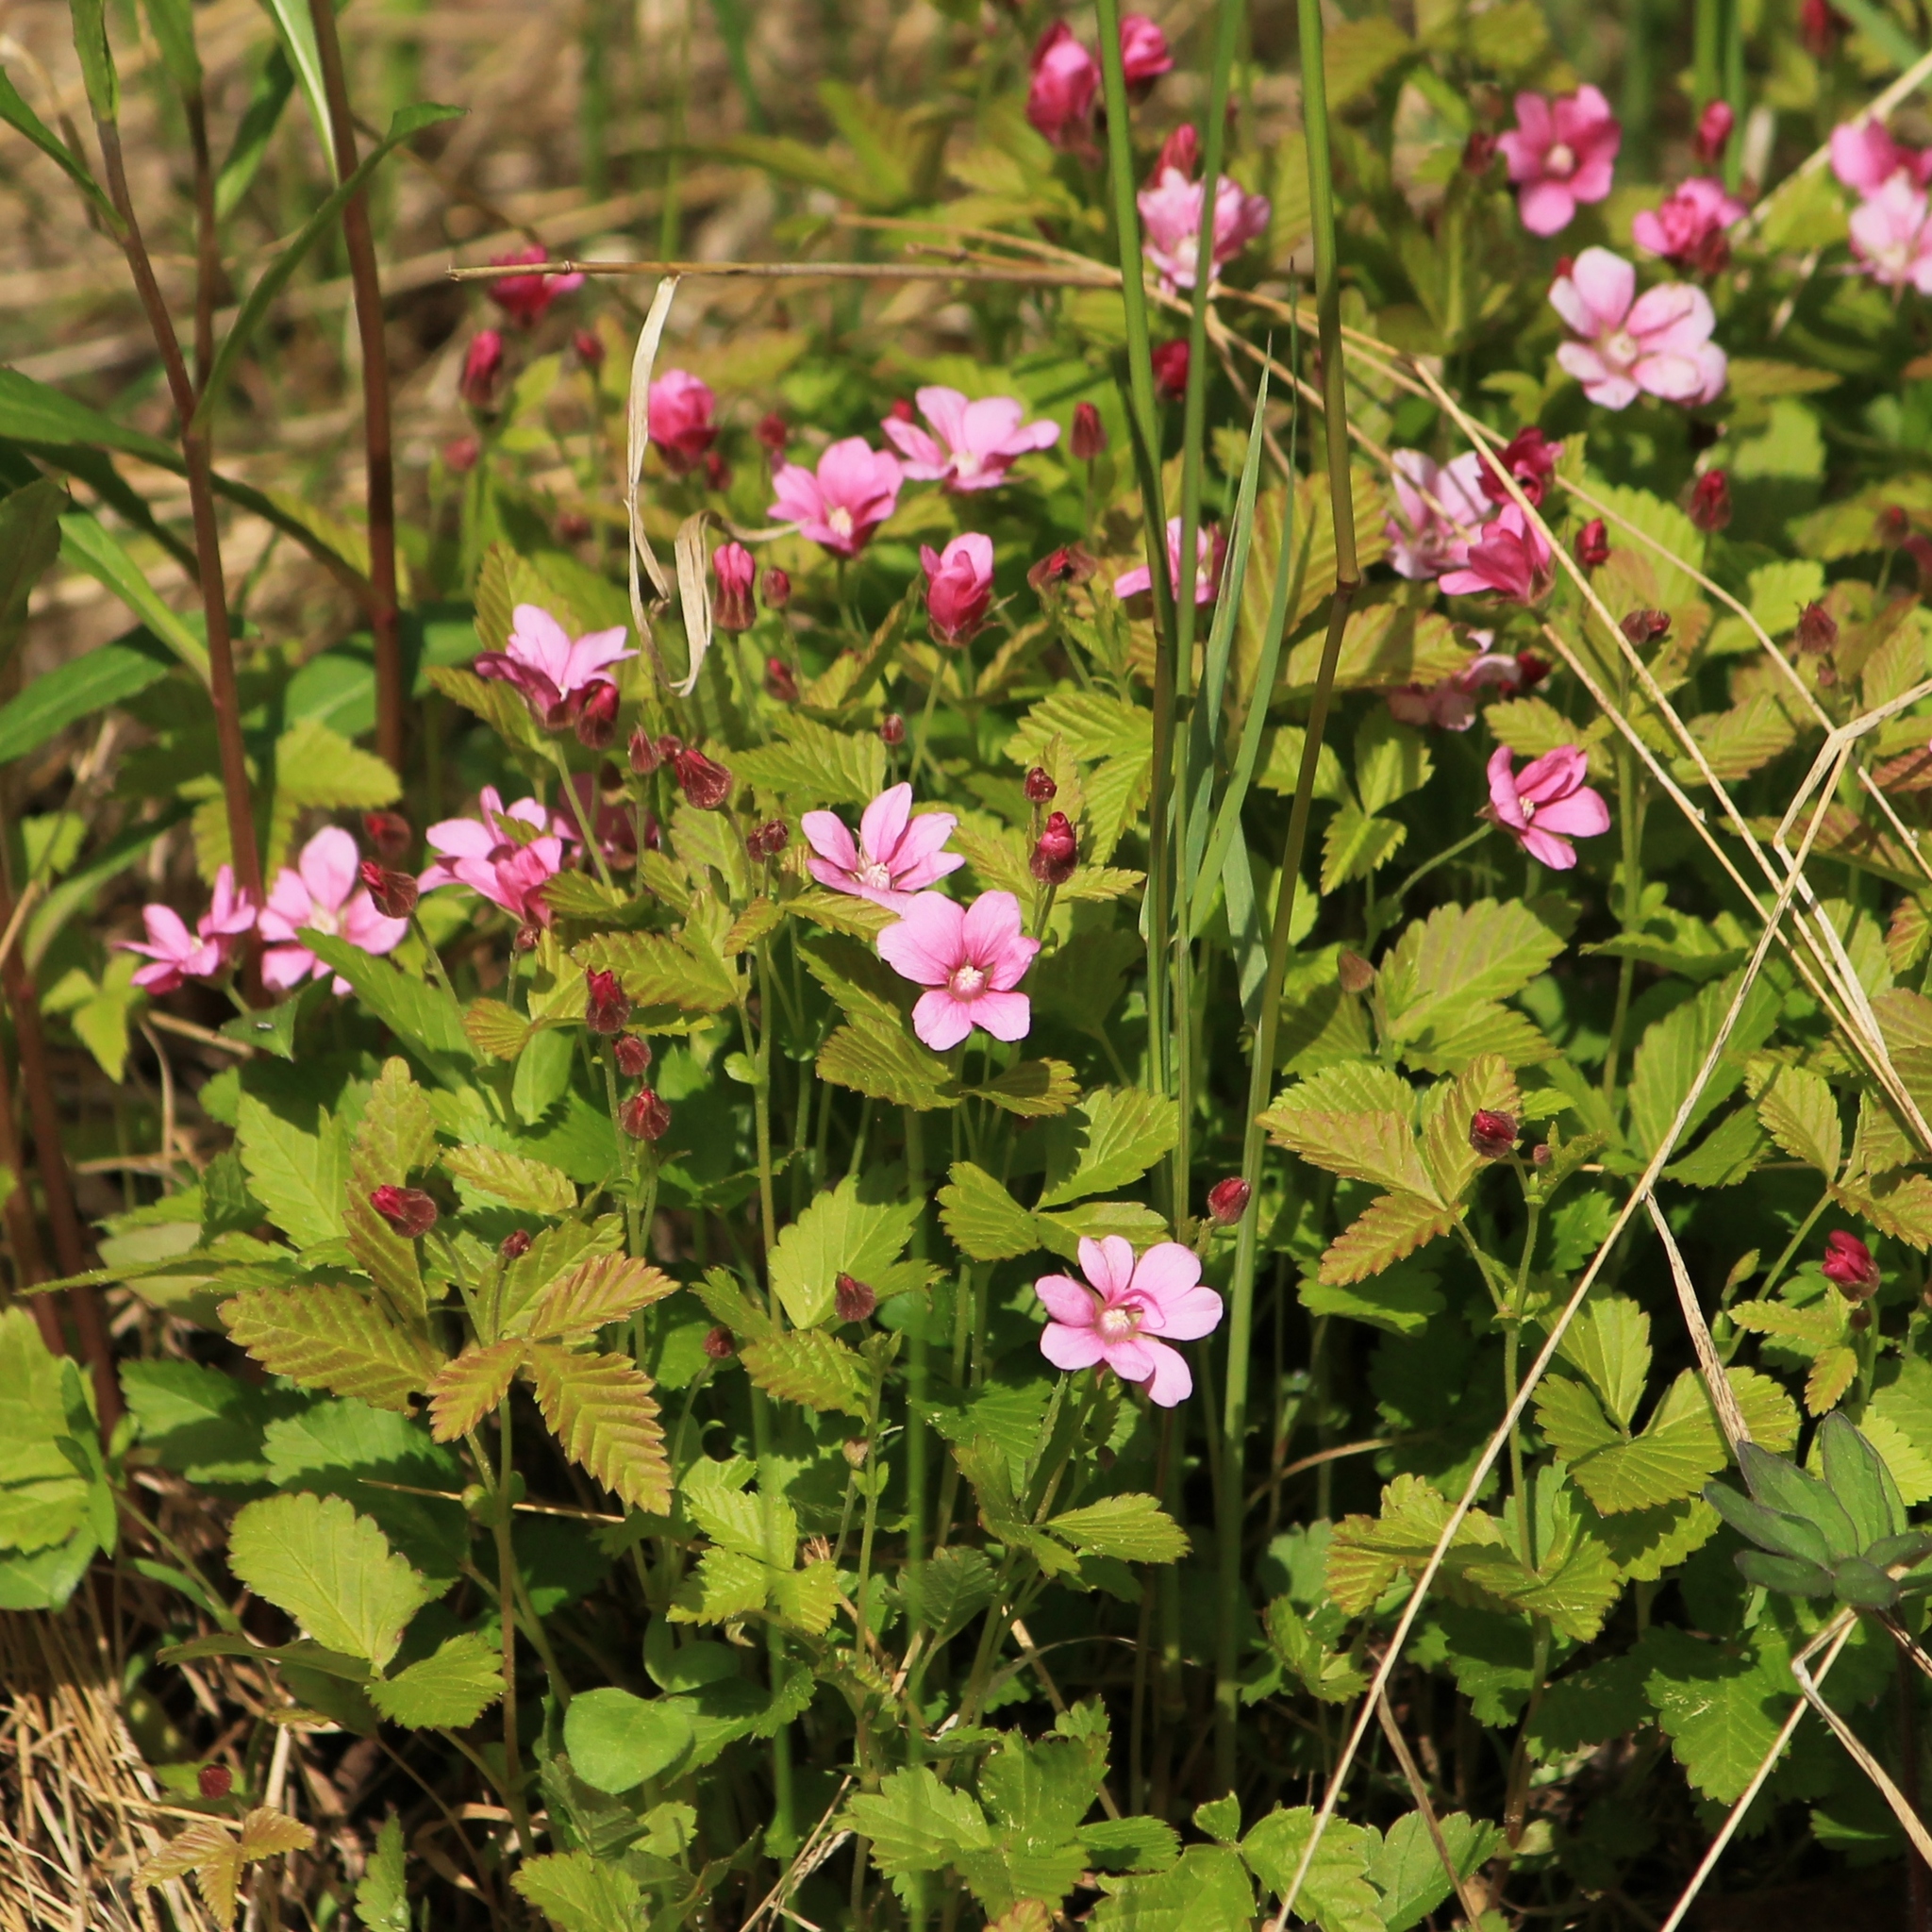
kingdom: Plantae
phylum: Tracheophyta
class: Magnoliopsida
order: Rosales
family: Rosaceae
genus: Rubus
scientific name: Rubus arcticus
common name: Arctic bramble
